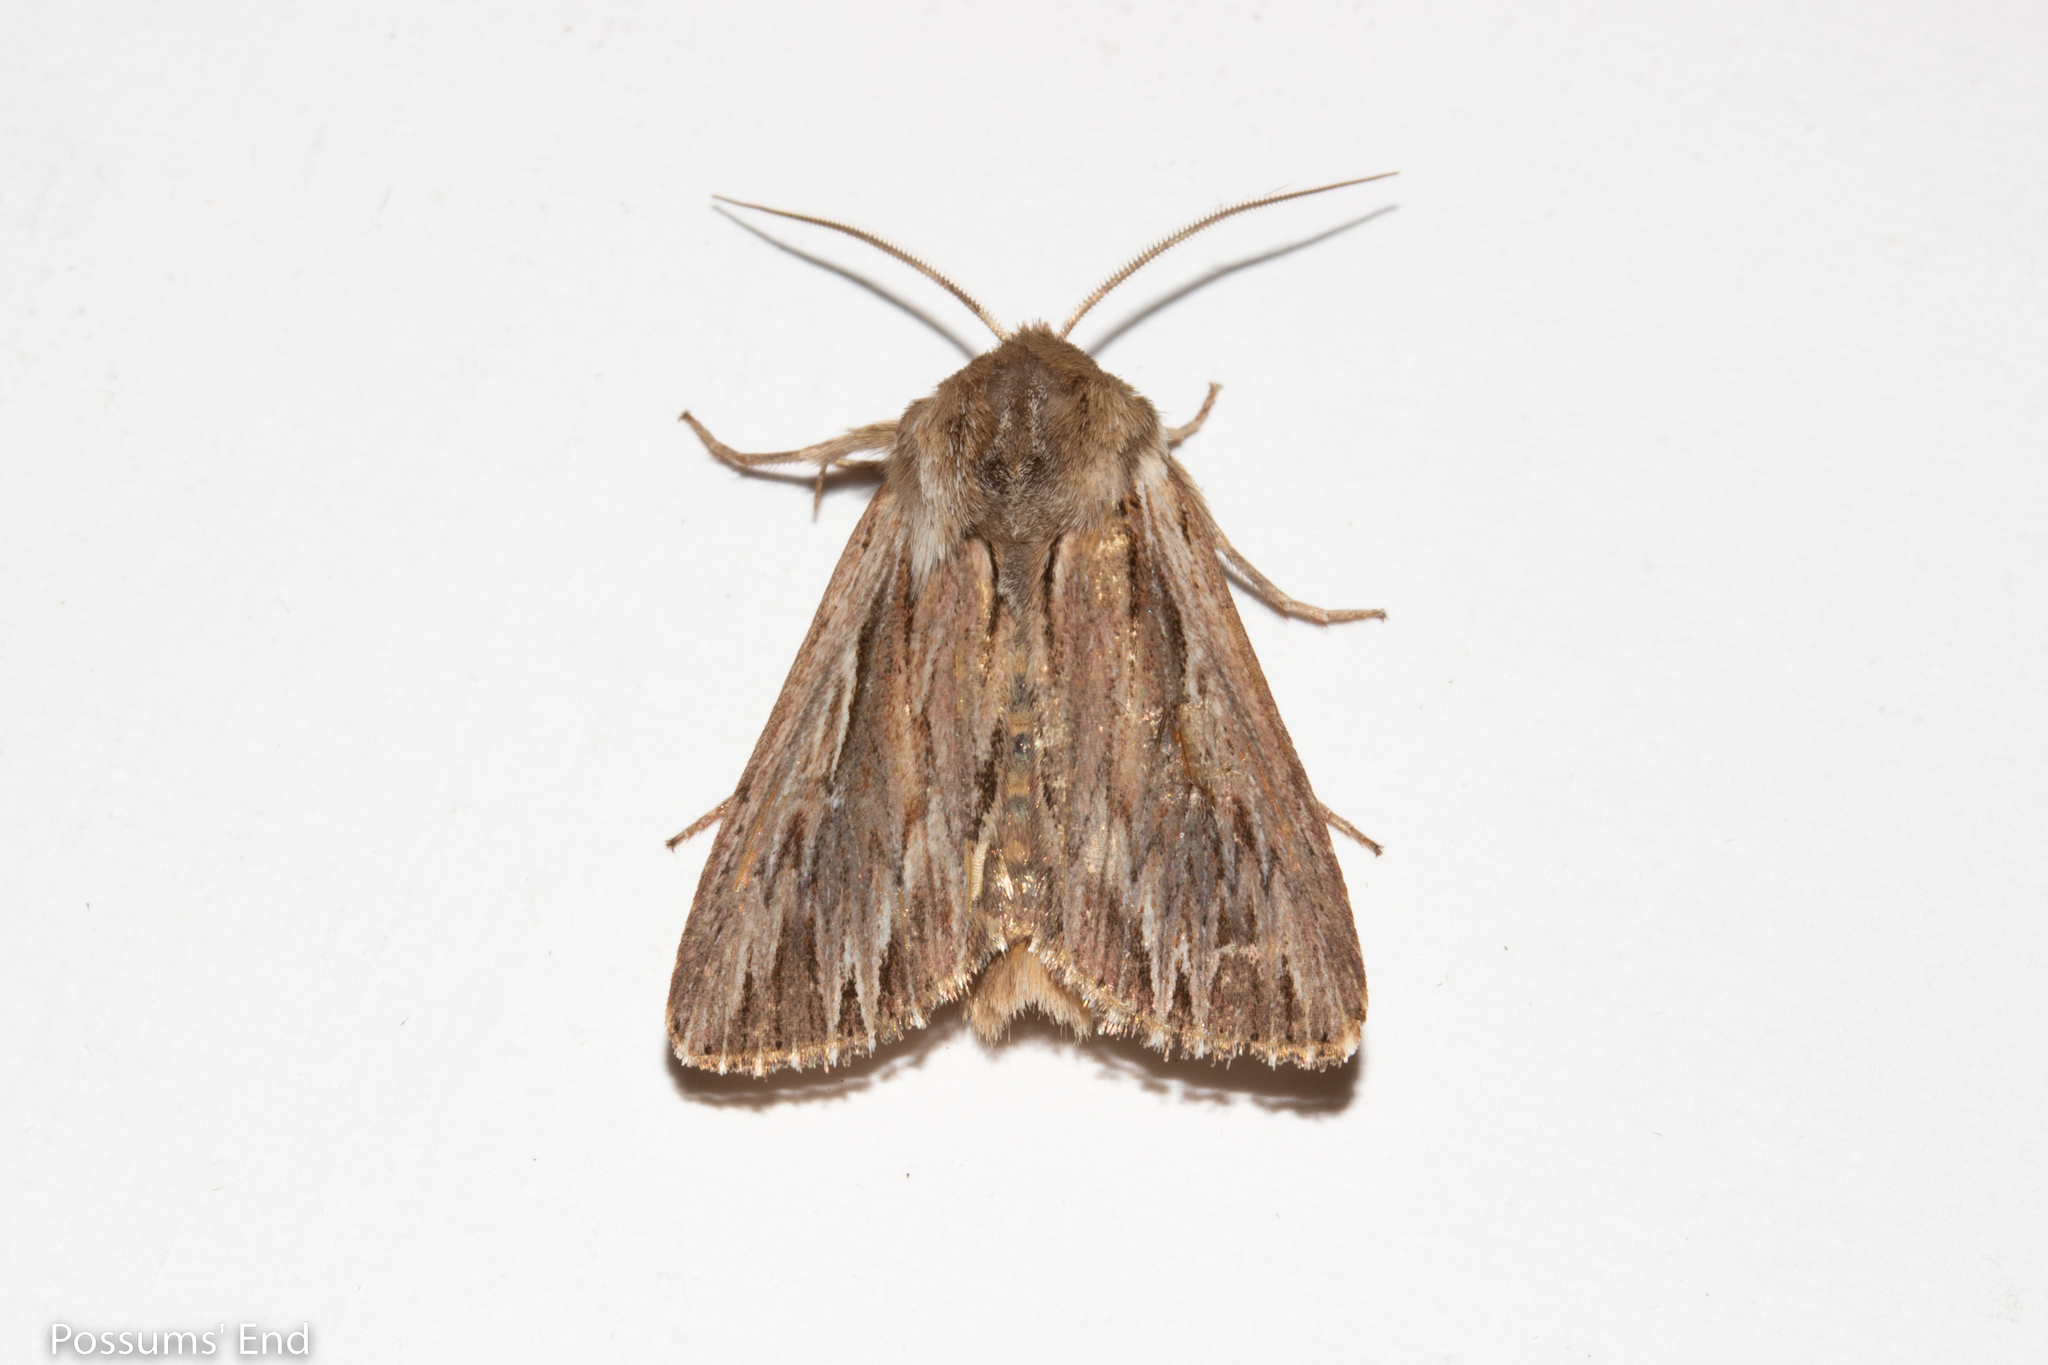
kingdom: Animalia
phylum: Arthropoda
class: Insecta
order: Lepidoptera
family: Noctuidae
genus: Persectania
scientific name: Persectania aversa
